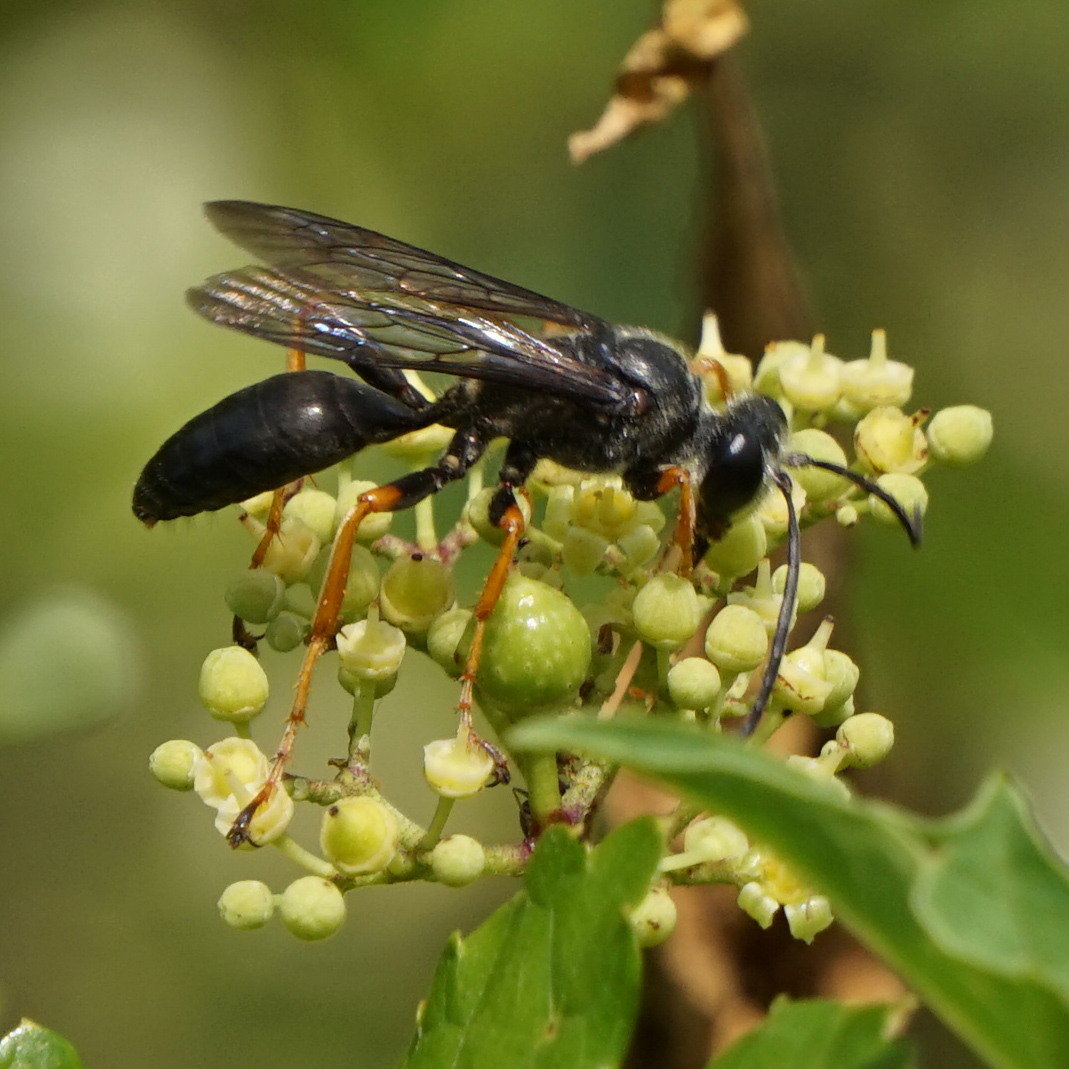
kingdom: Animalia
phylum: Arthropoda
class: Insecta
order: Hymenoptera
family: Sphecidae
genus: Sphex
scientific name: Sphex nudus
